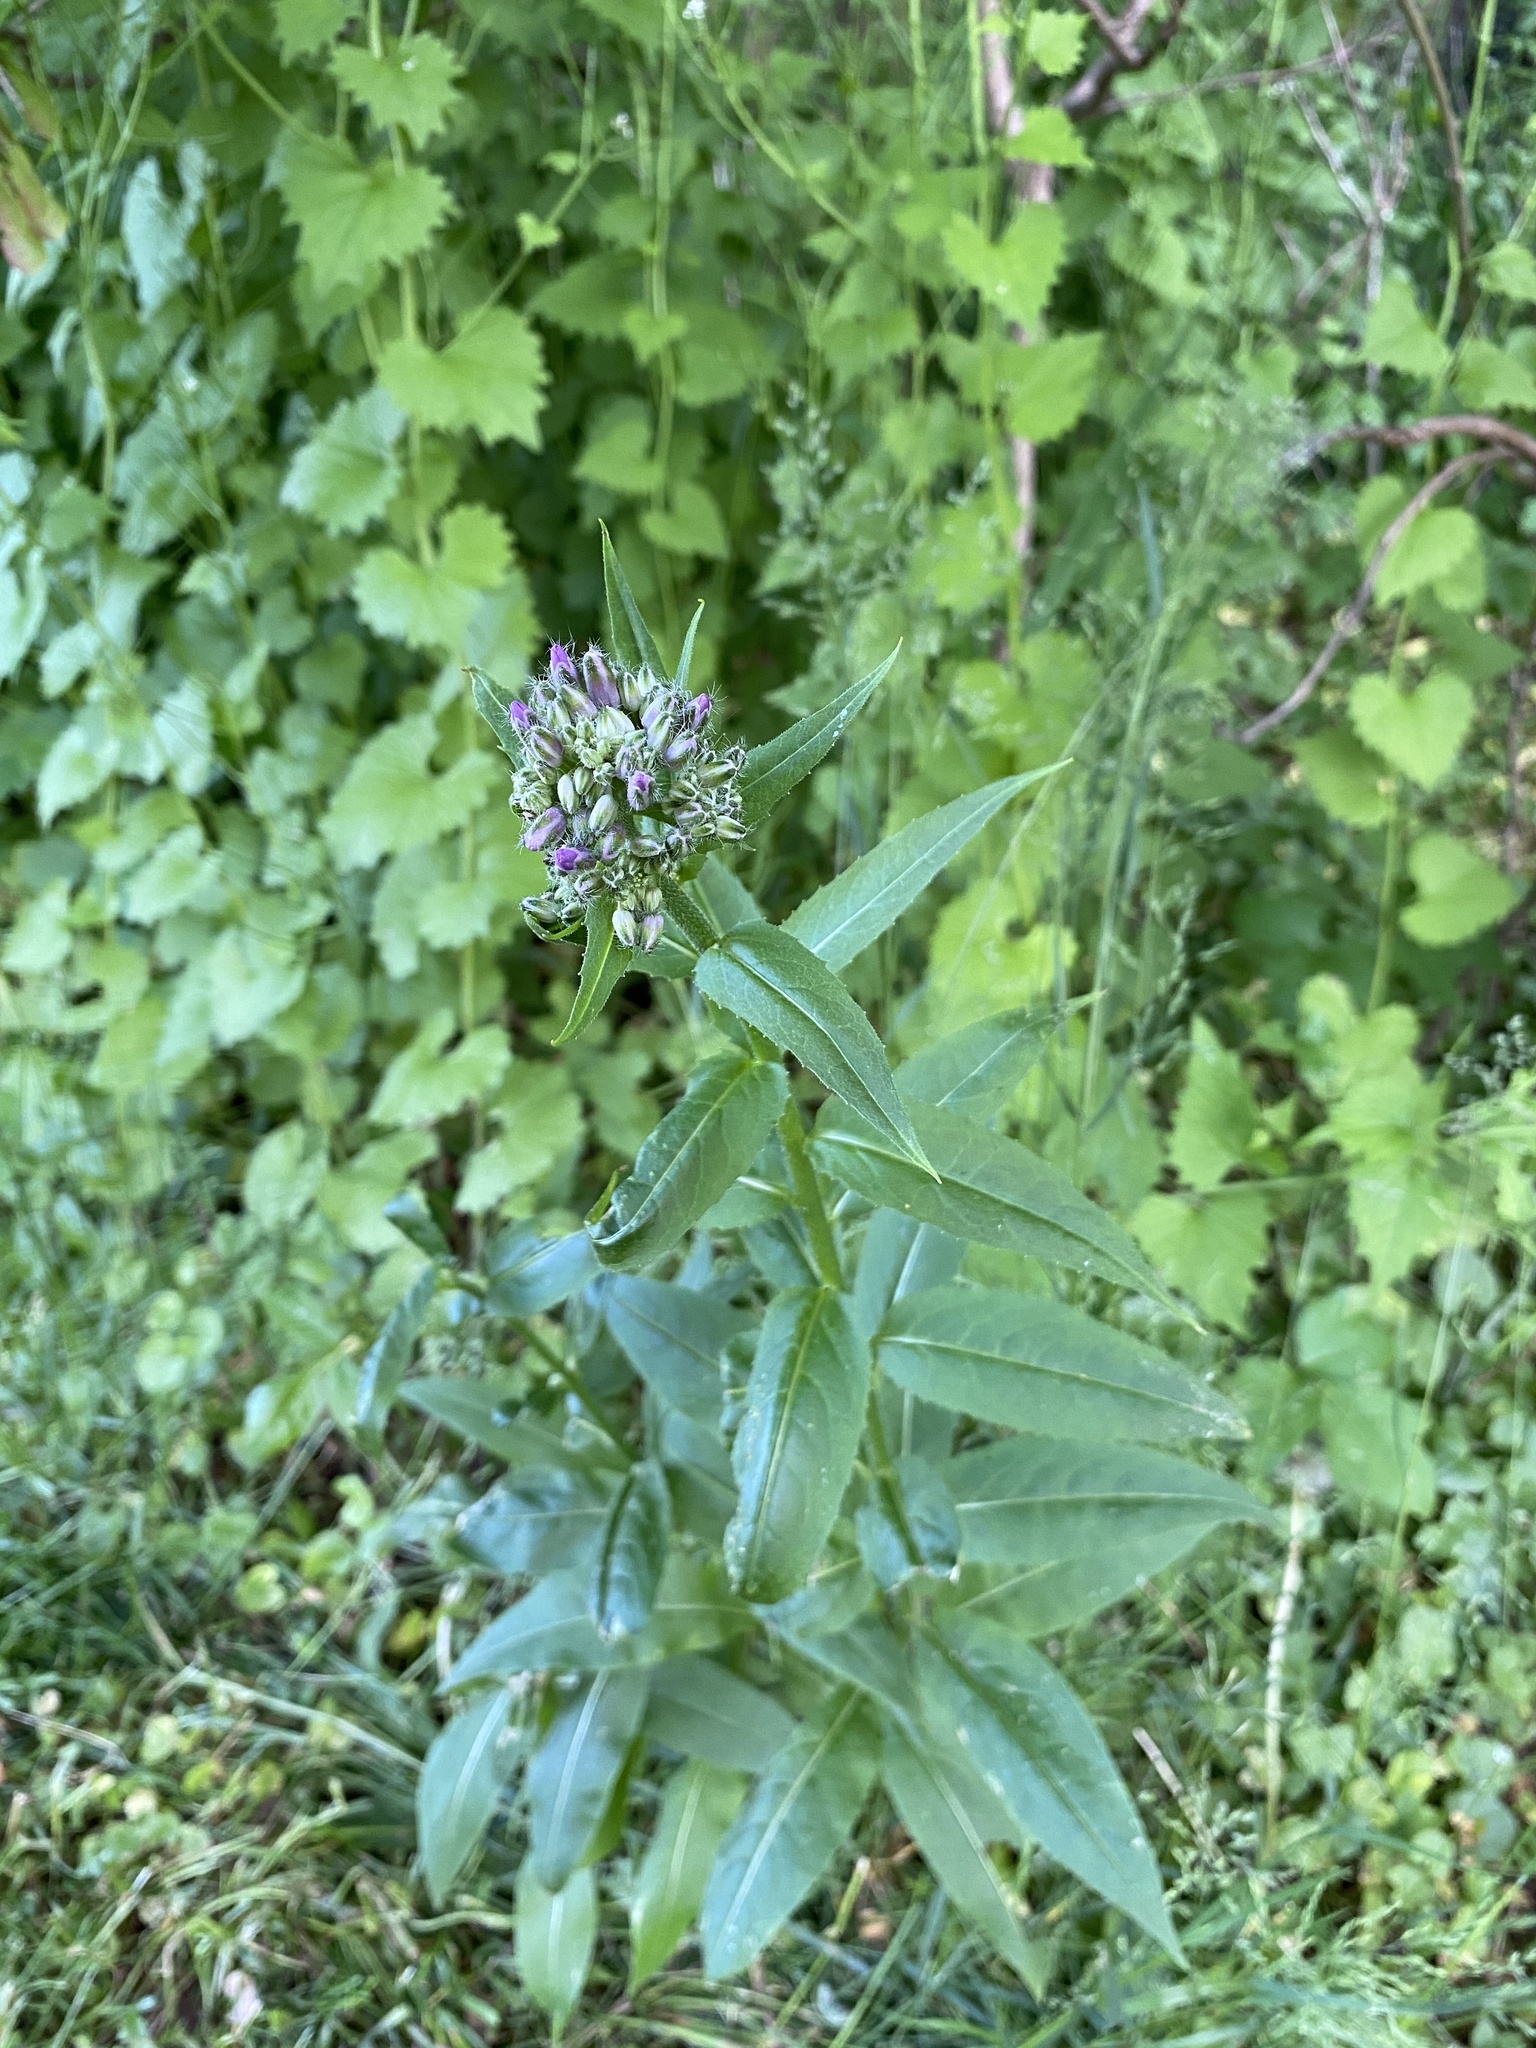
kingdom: Plantae
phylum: Tracheophyta
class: Magnoliopsida
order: Brassicales
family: Brassicaceae
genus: Hesperis
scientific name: Hesperis matronalis
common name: Dame's-violet
